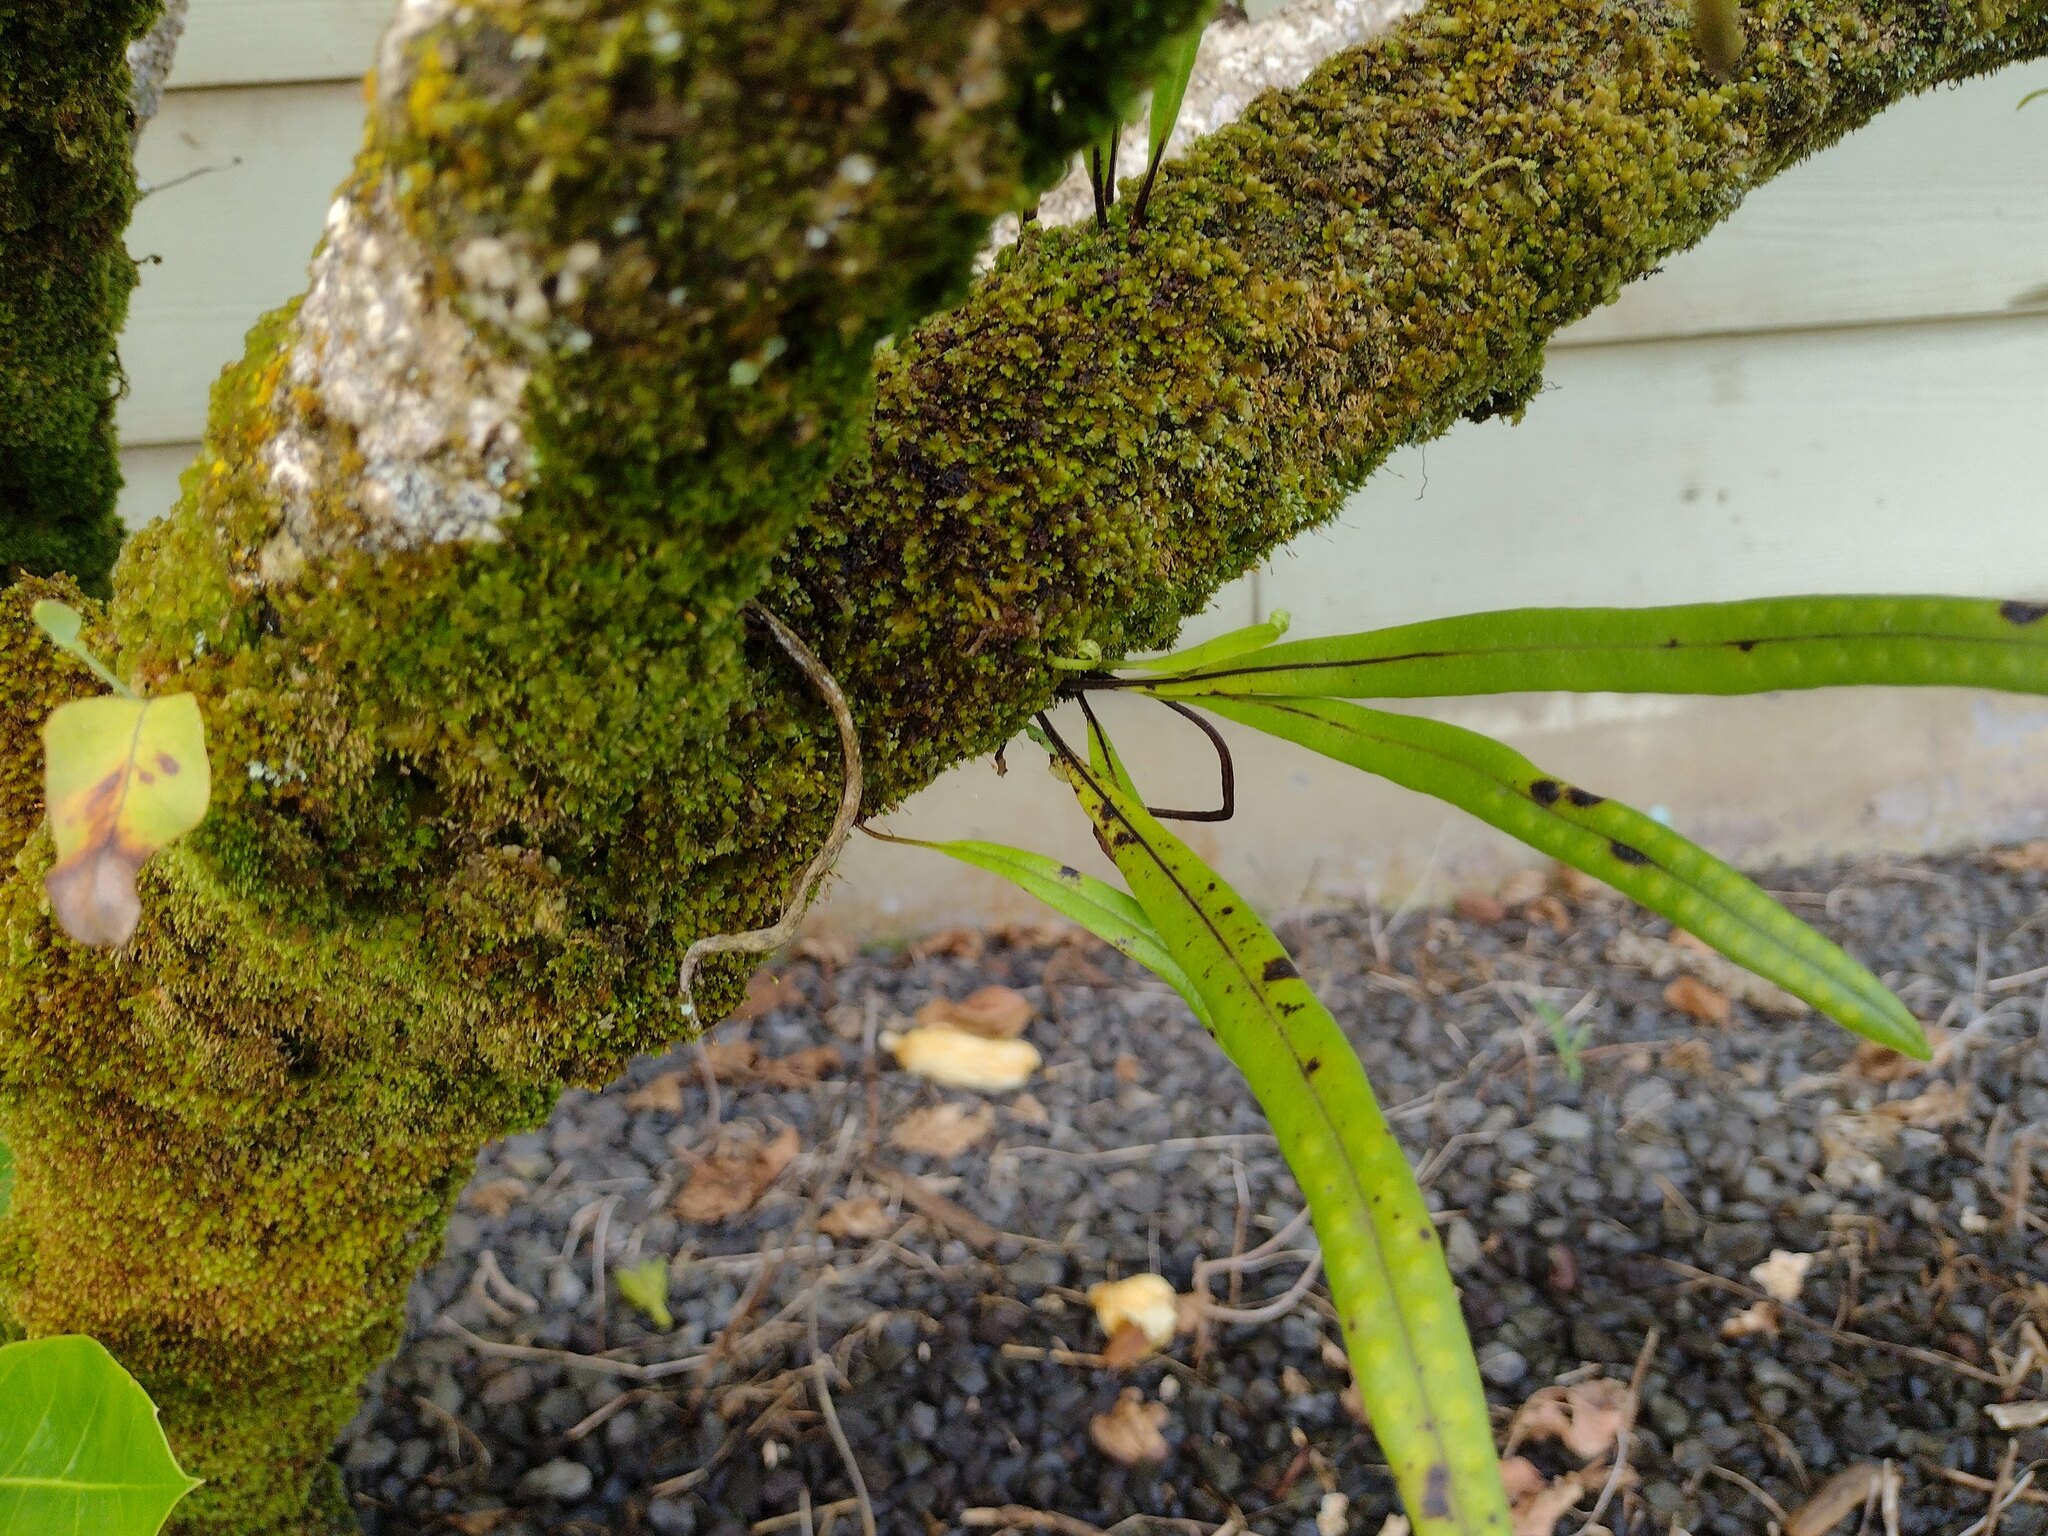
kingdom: Plantae
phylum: Tracheophyta
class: Polypodiopsida
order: Polypodiales
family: Polypodiaceae
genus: Lepisorus
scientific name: Lepisorus thunbergianus
